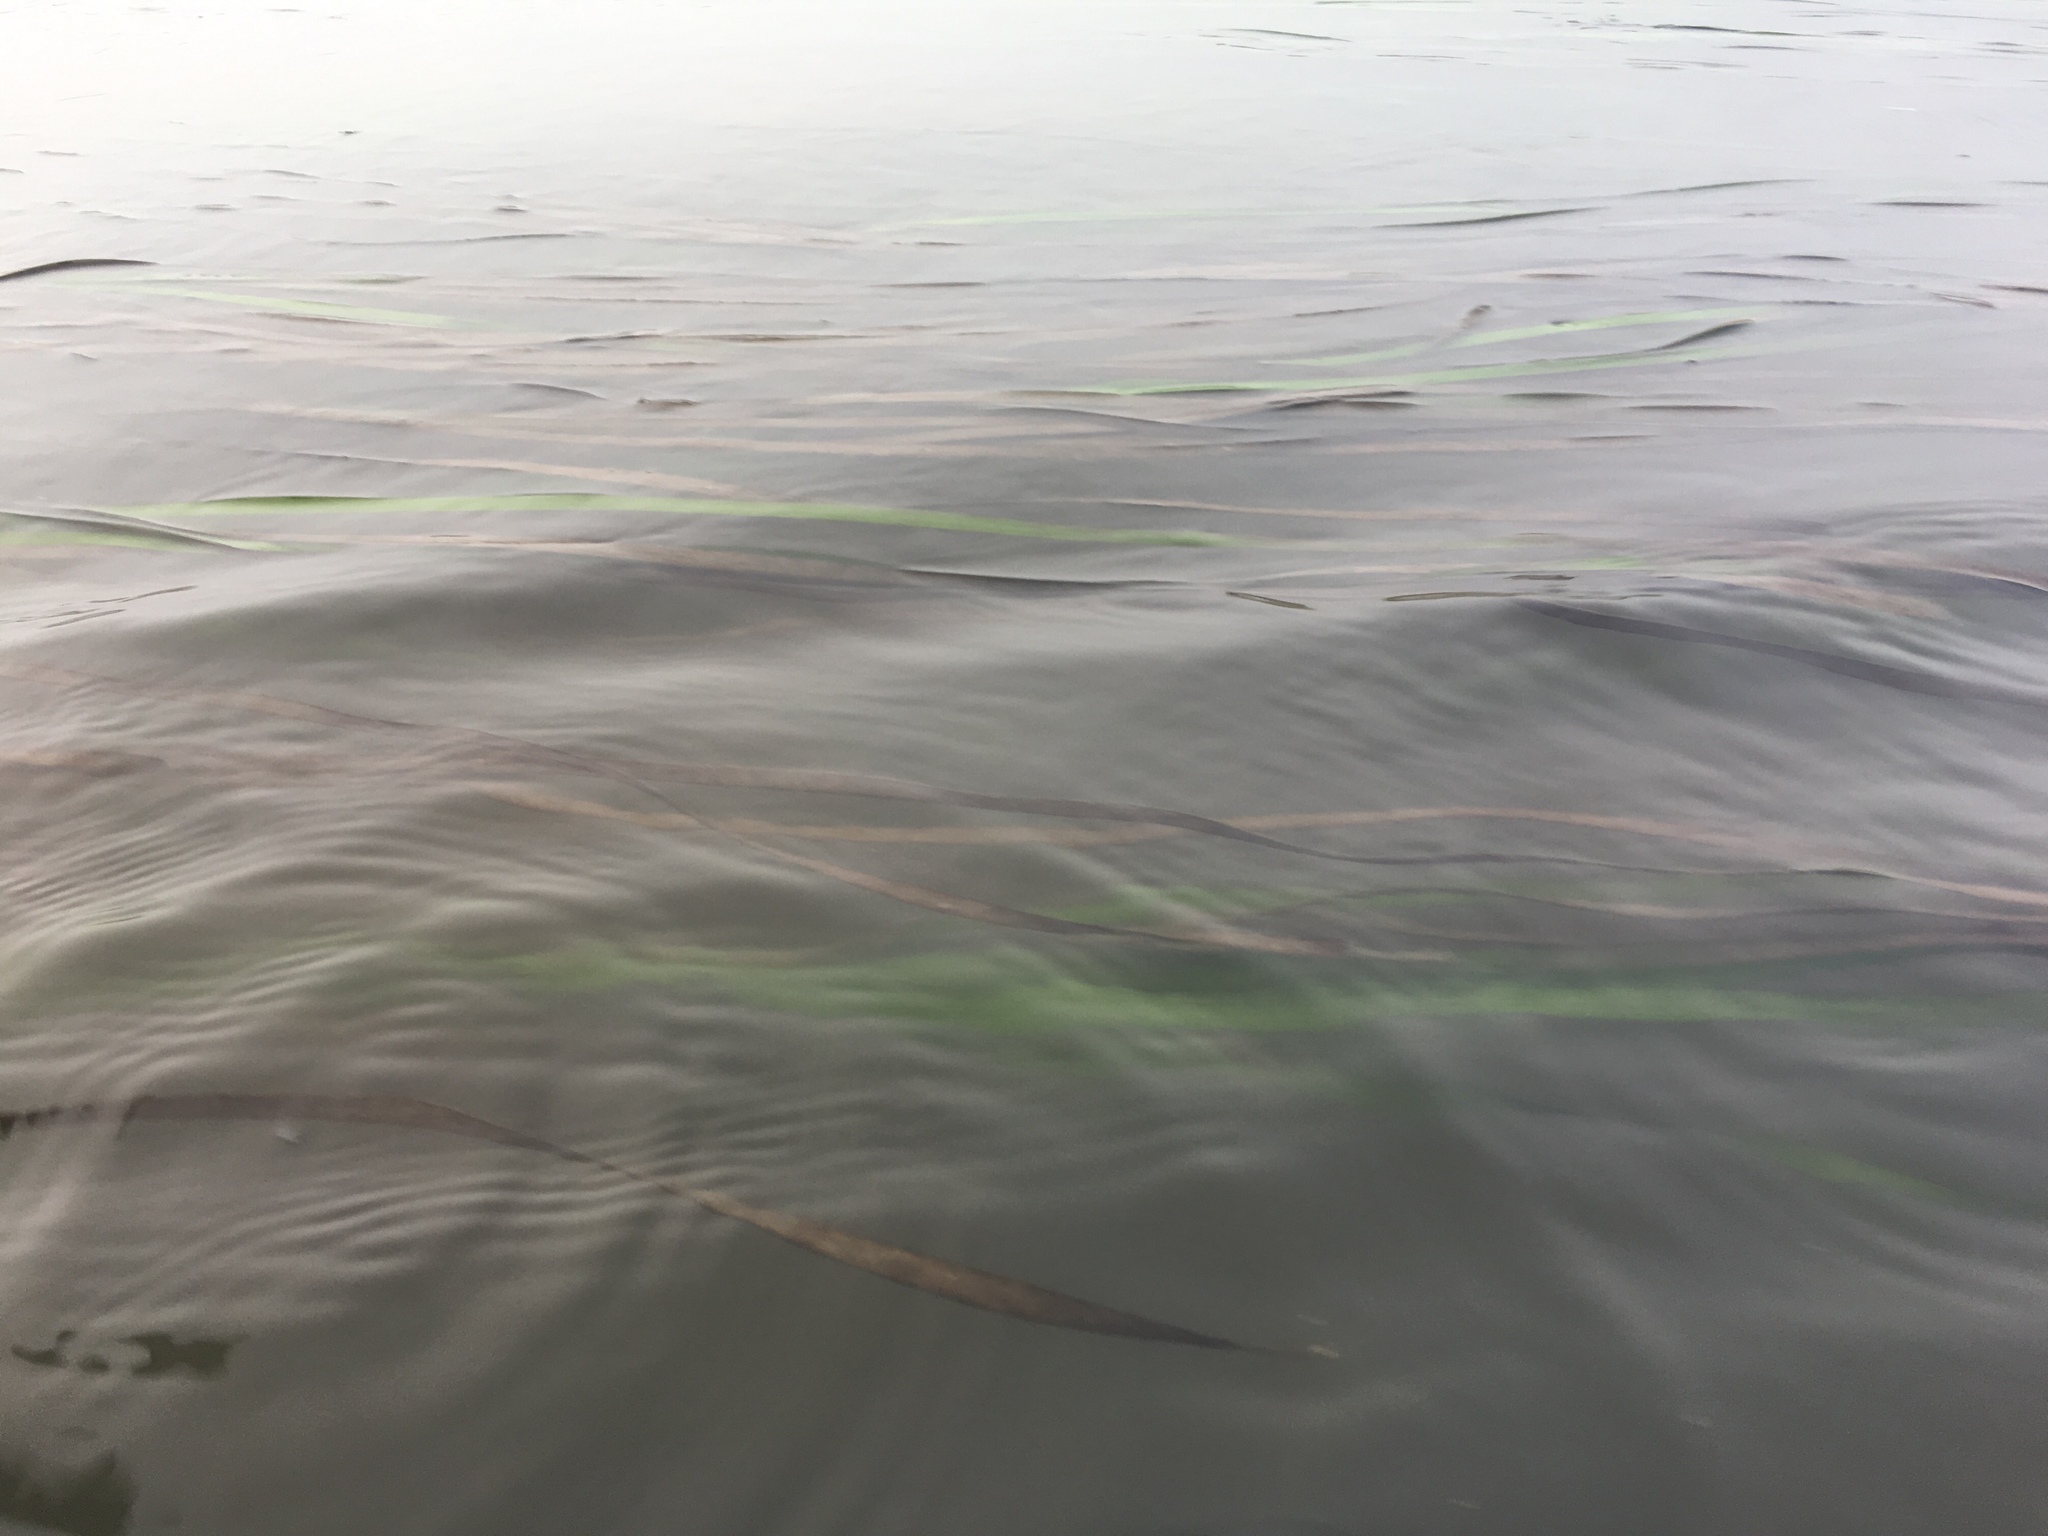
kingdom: Plantae
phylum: Tracheophyta
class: Liliopsida
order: Alismatales
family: Zosteraceae
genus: Zostera
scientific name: Zostera marina
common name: Eelgrass
